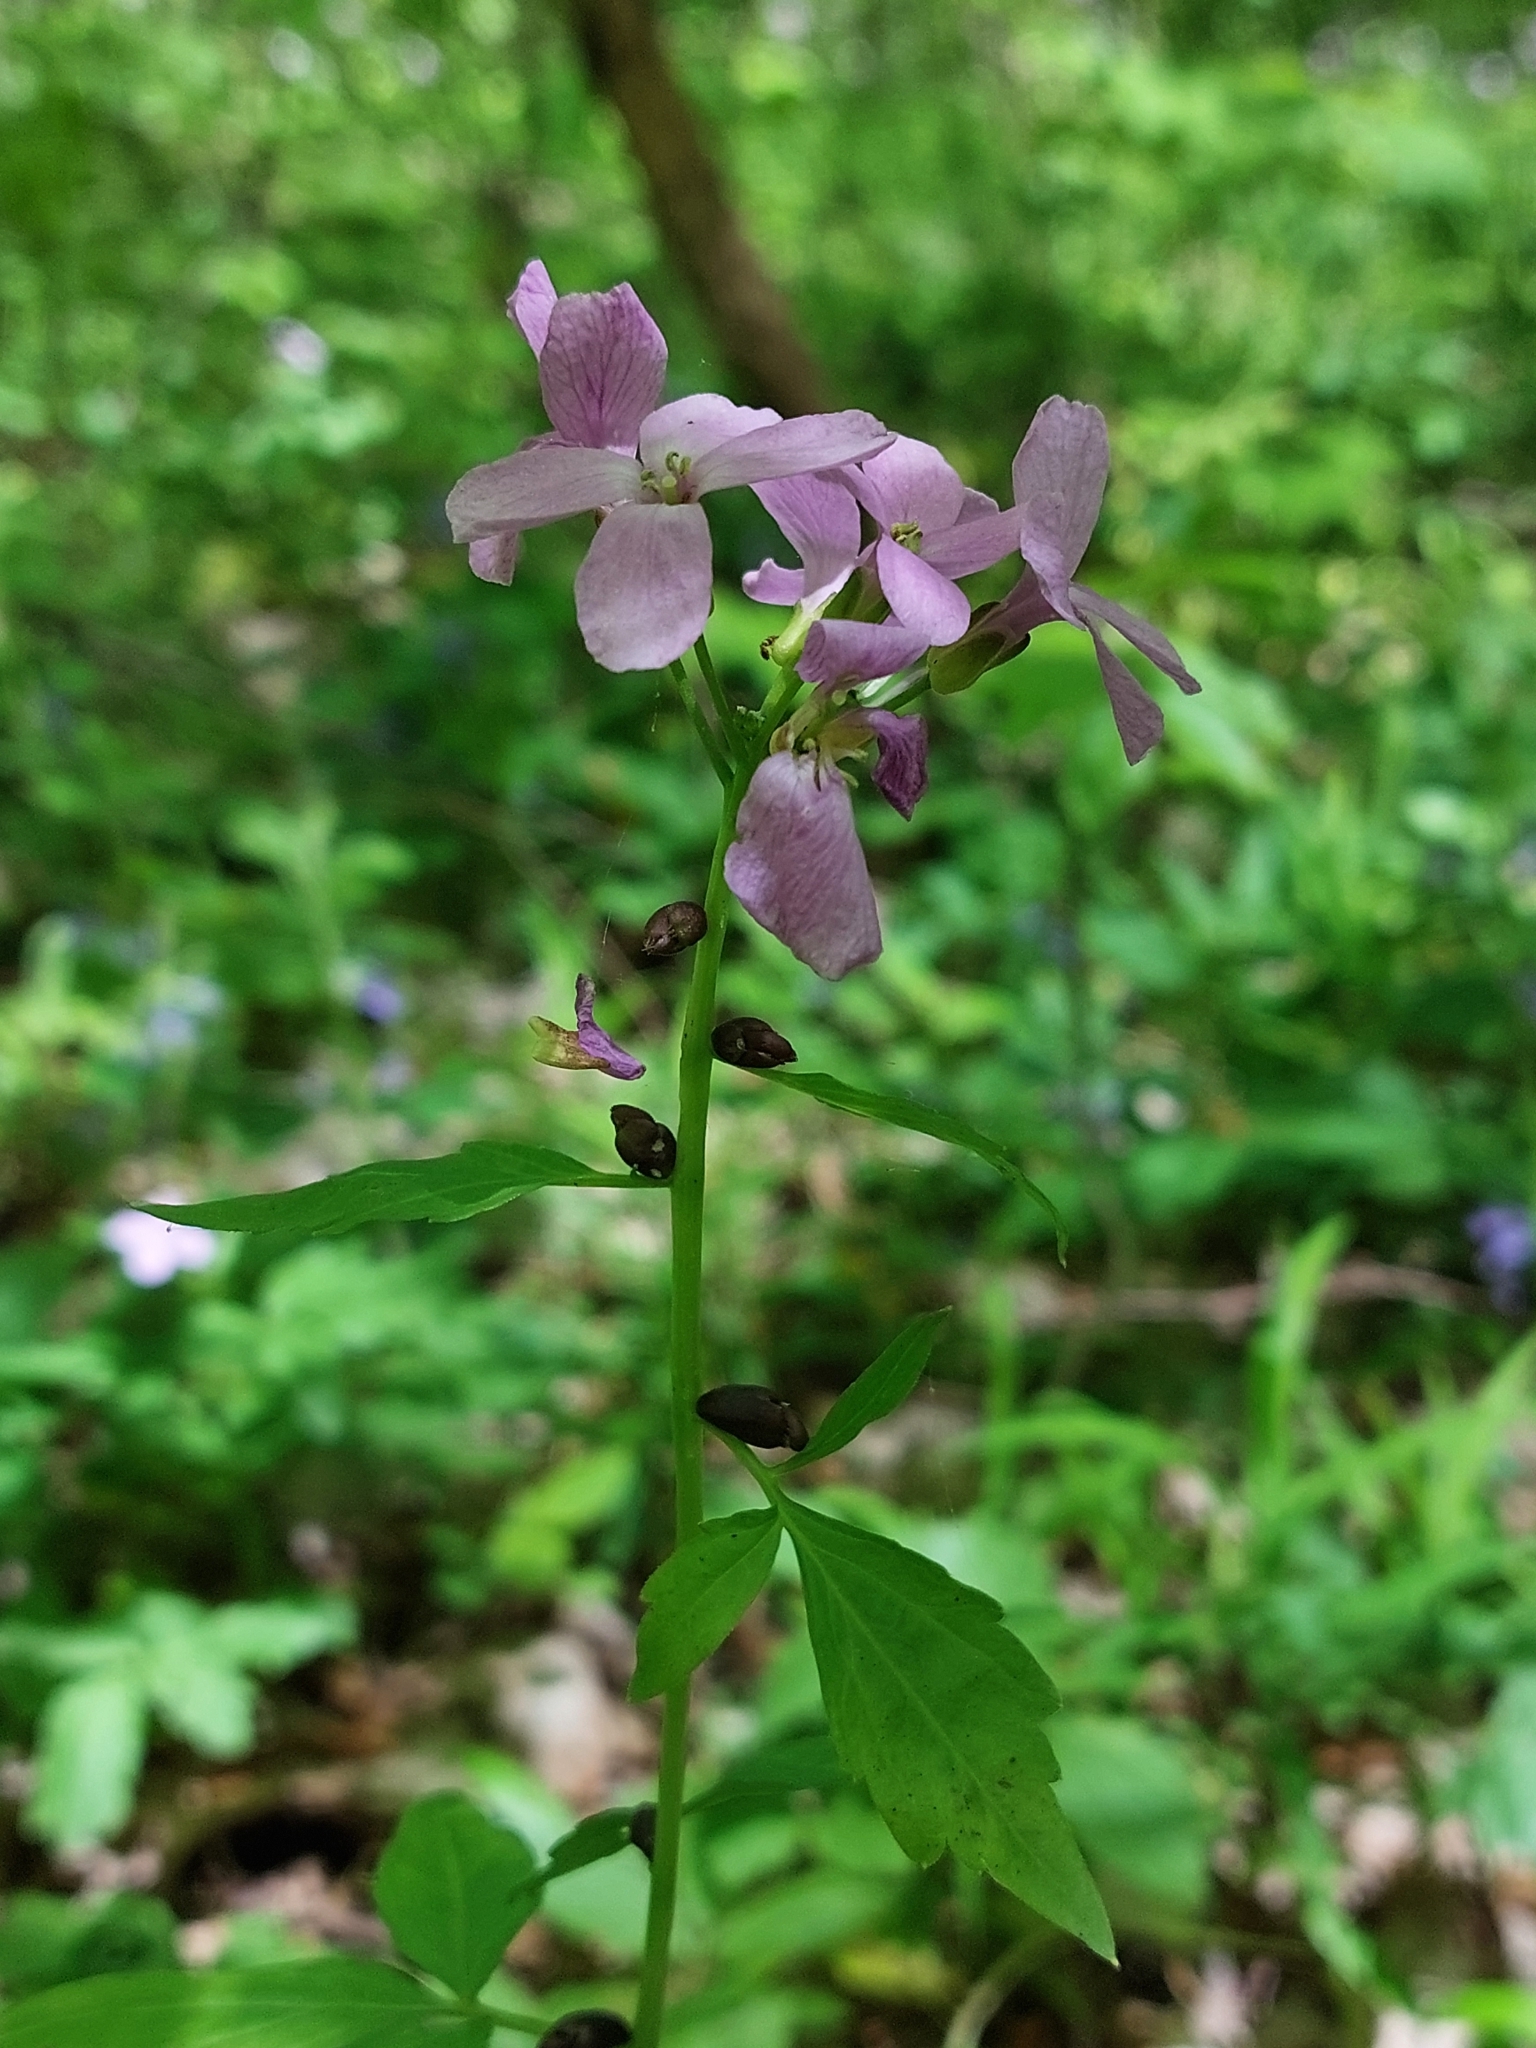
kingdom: Plantae
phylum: Tracheophyta
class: Magnoliopsida
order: Brassicales
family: Brassicaceae
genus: Cardamine
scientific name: Cardamine bulbifera
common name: Coralroot bittercress
